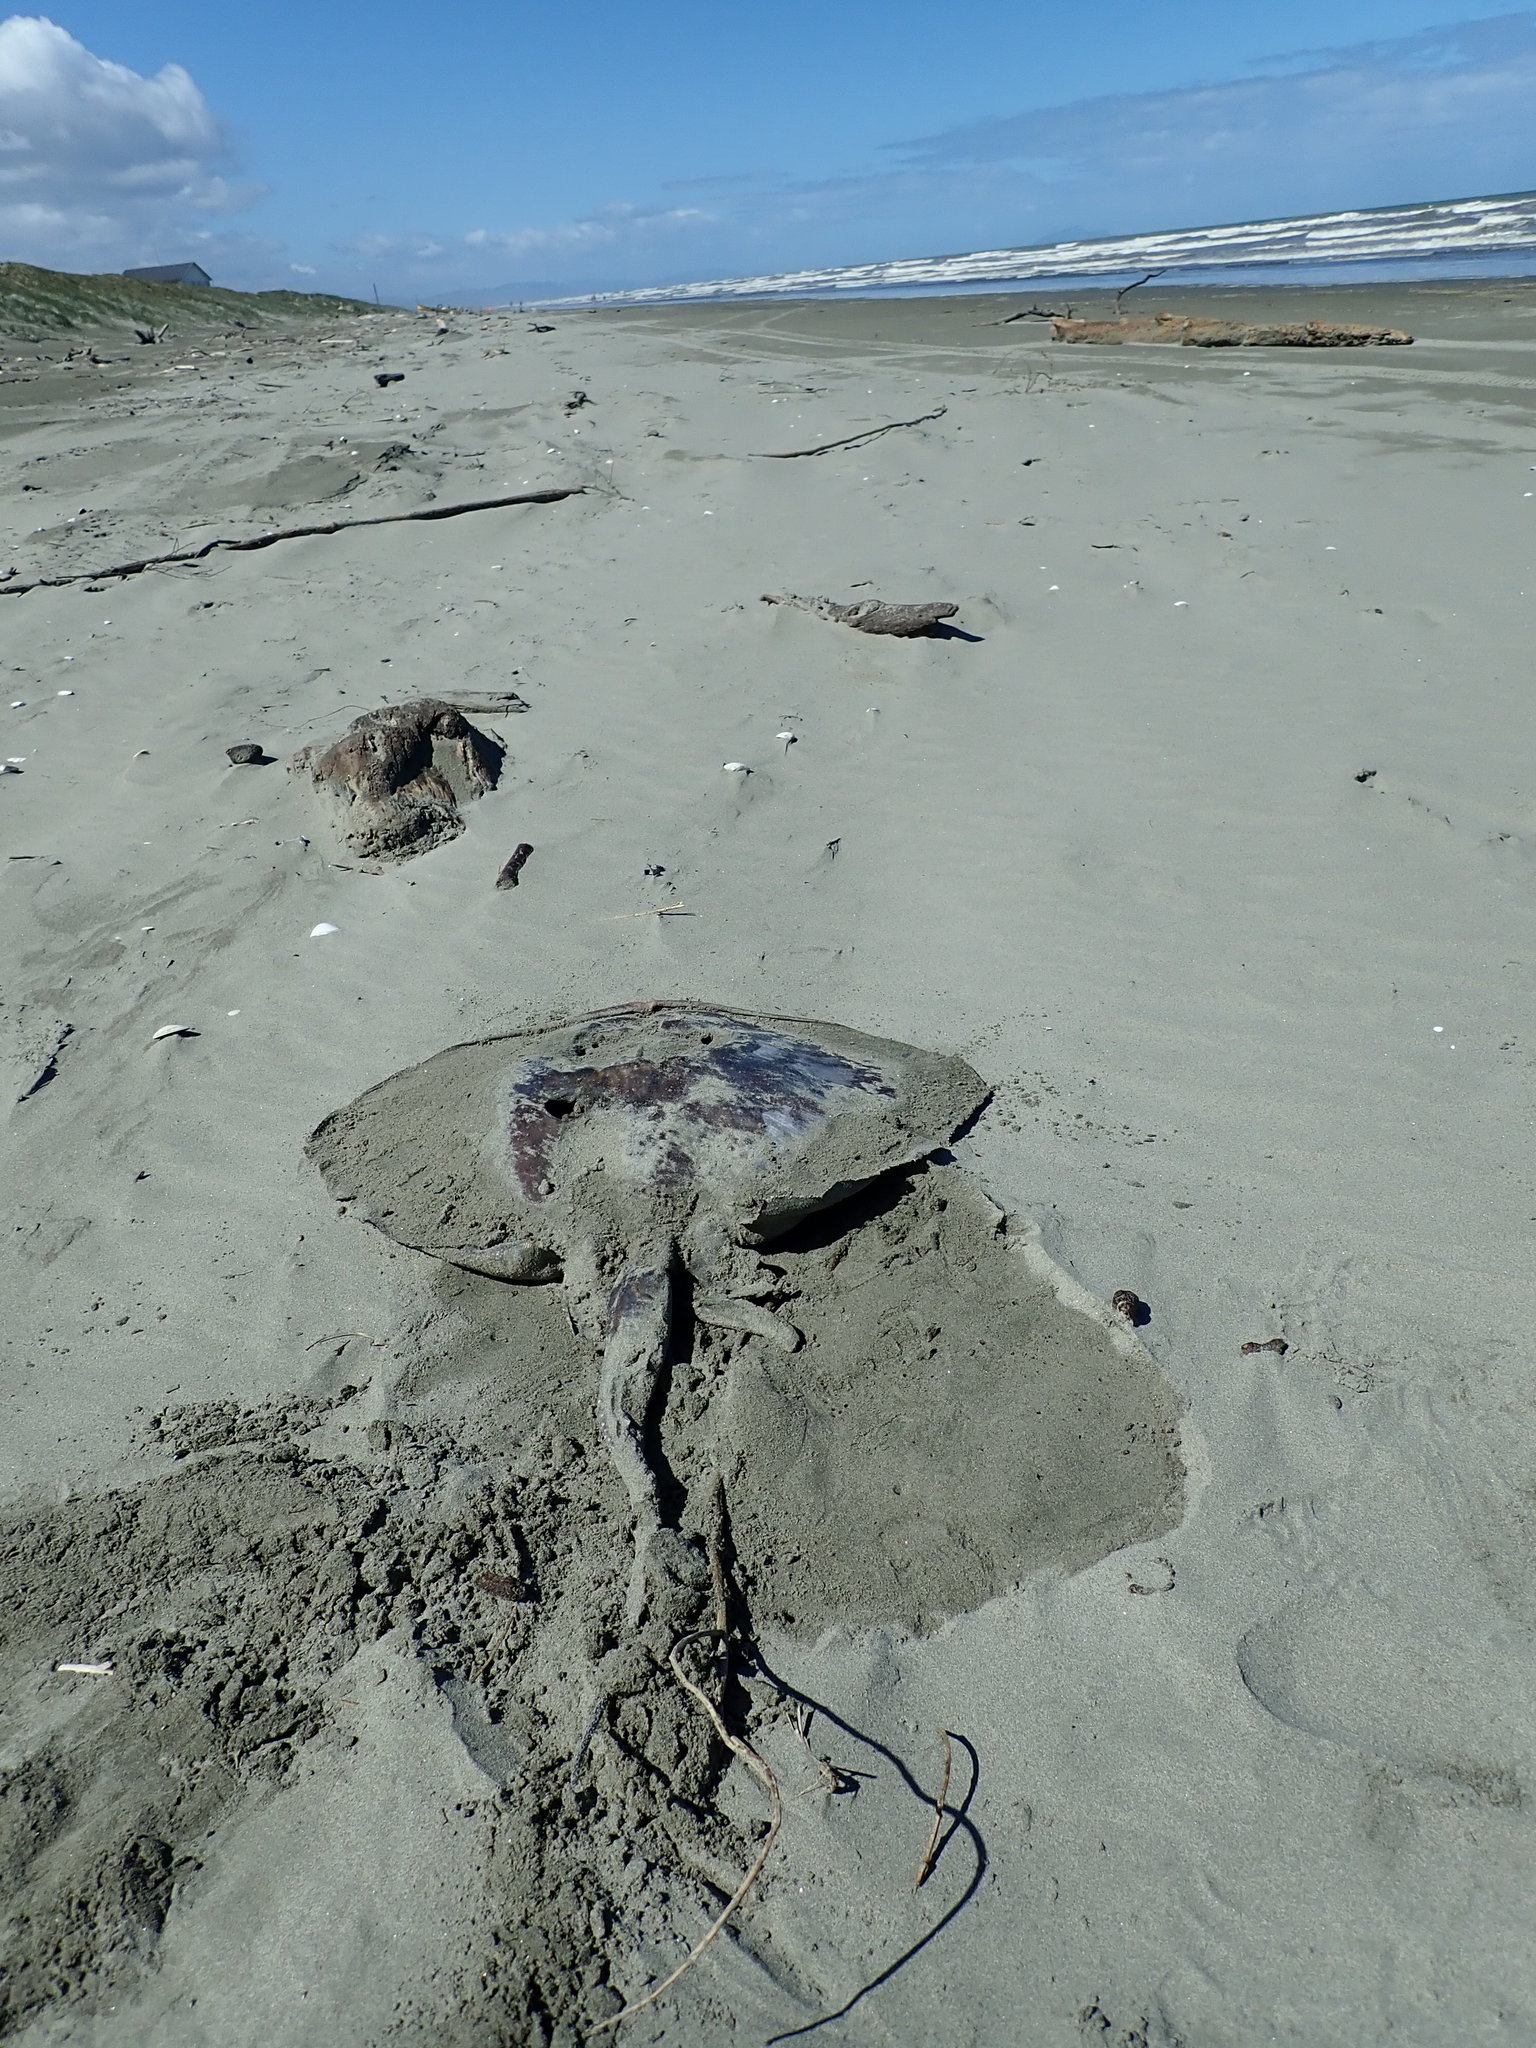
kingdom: Animalia
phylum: Chordata
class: Elasmobranchii
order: Myliobatiformes
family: Dasyatidae
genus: Bathytoshia
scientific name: Bathytoshia brevicaudata
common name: Short-tail stingray
